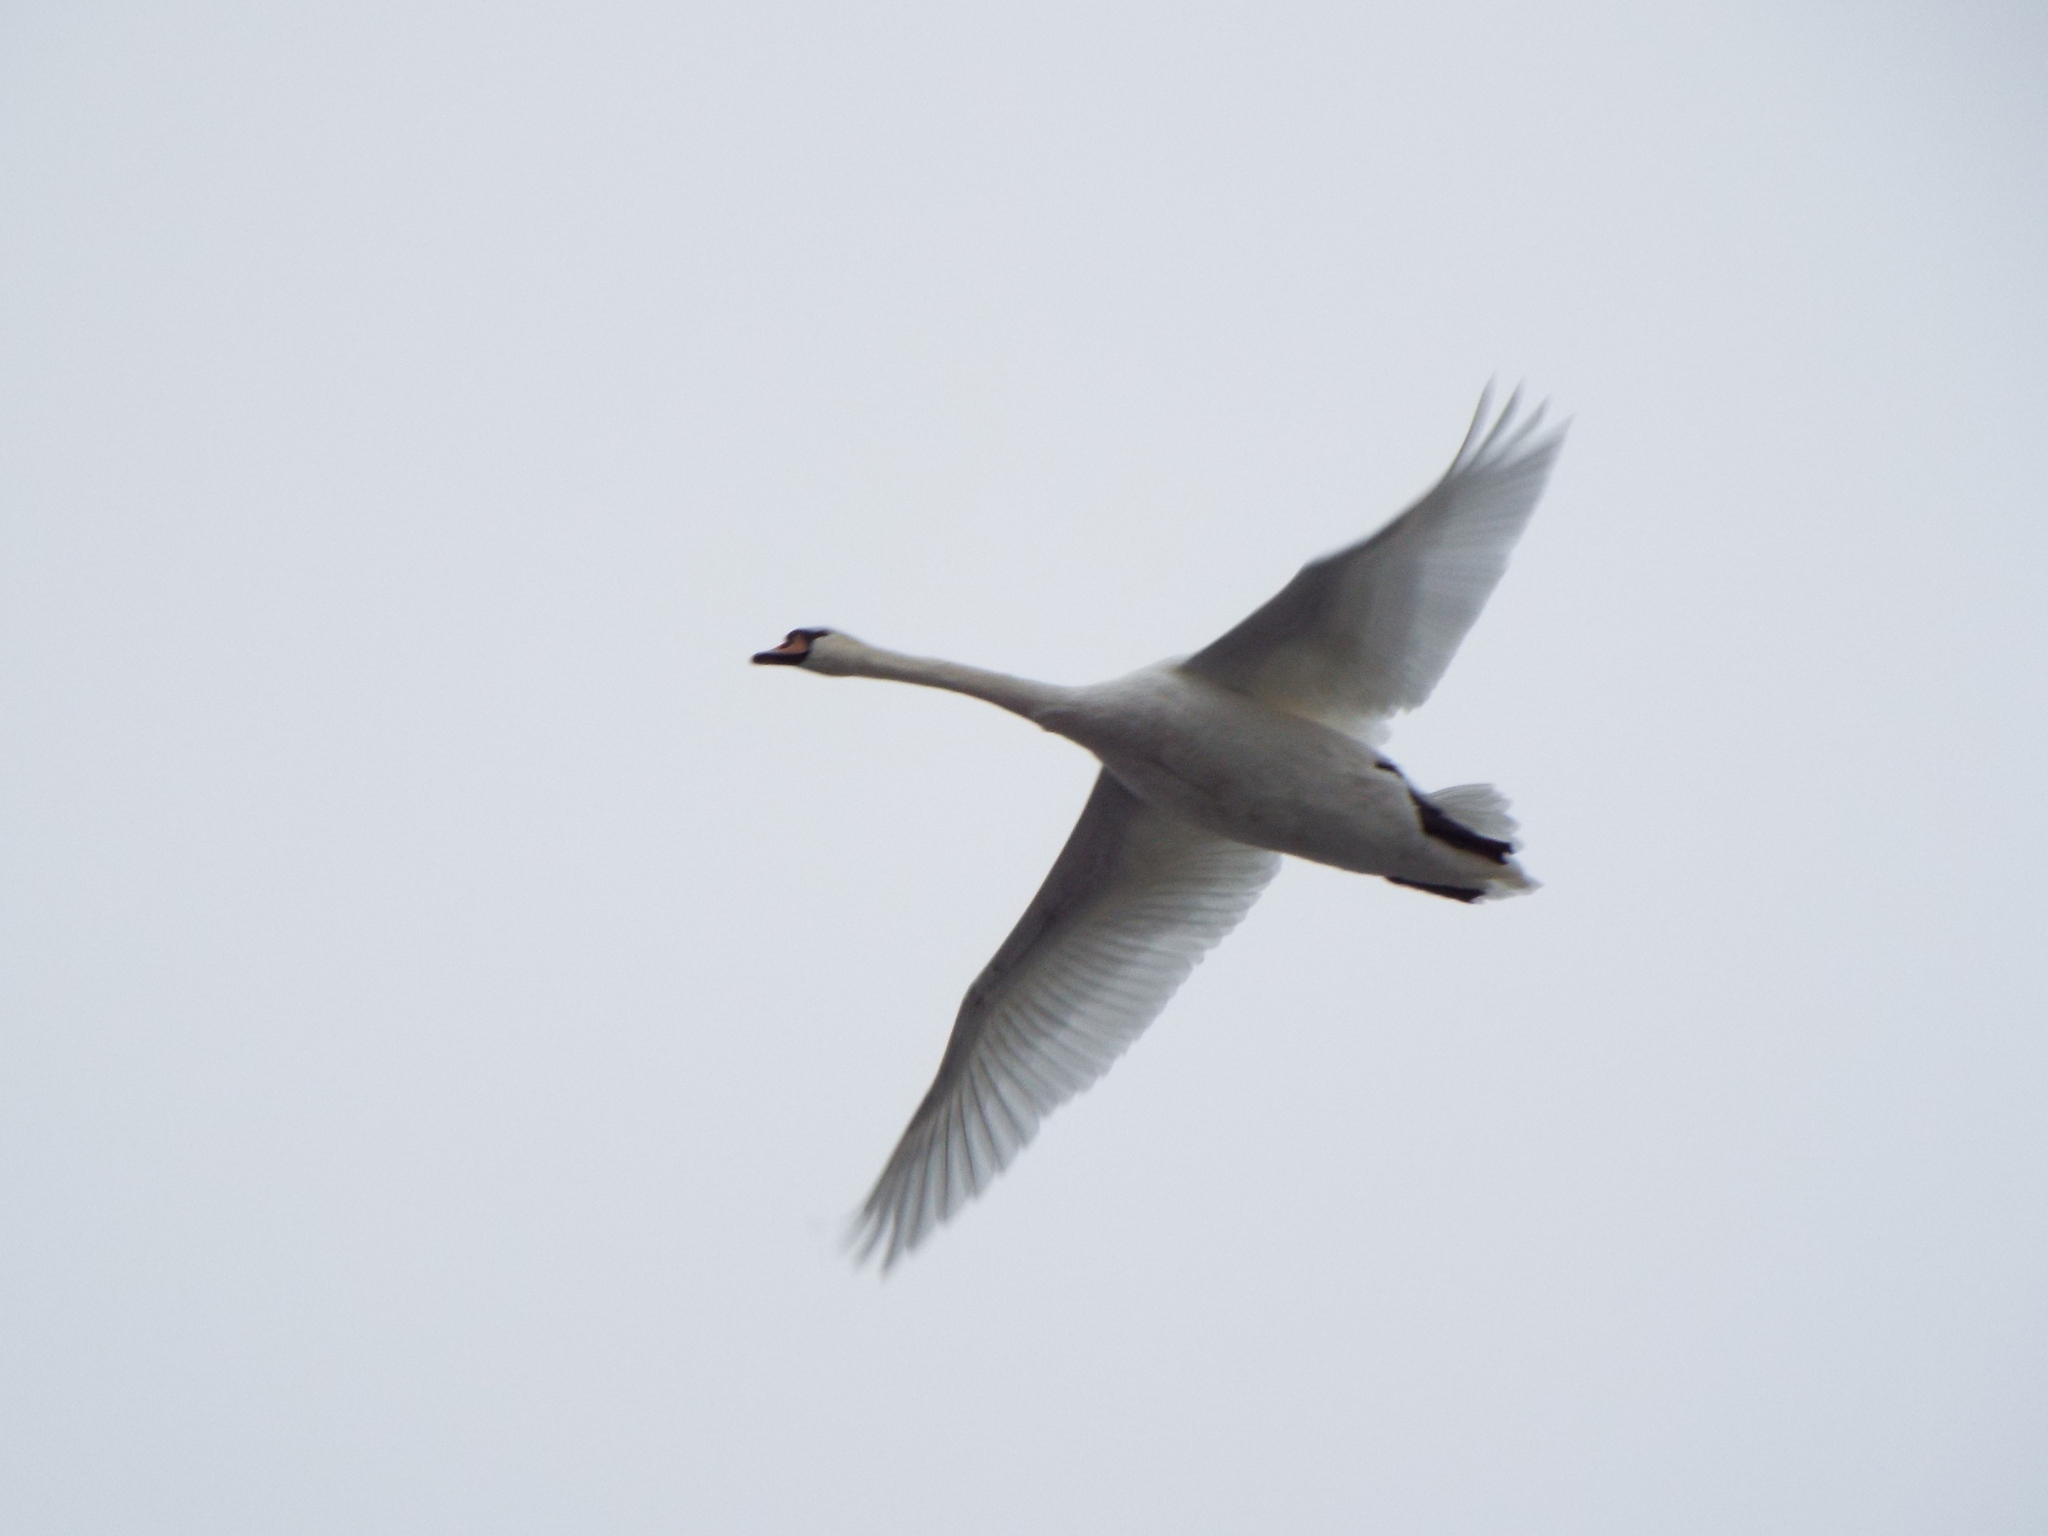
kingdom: Animalia
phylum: Chordata
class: Aves
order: Anseriformes
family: Anatidae
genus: Cygnus
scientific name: Cygnus olor
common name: Mute swan
